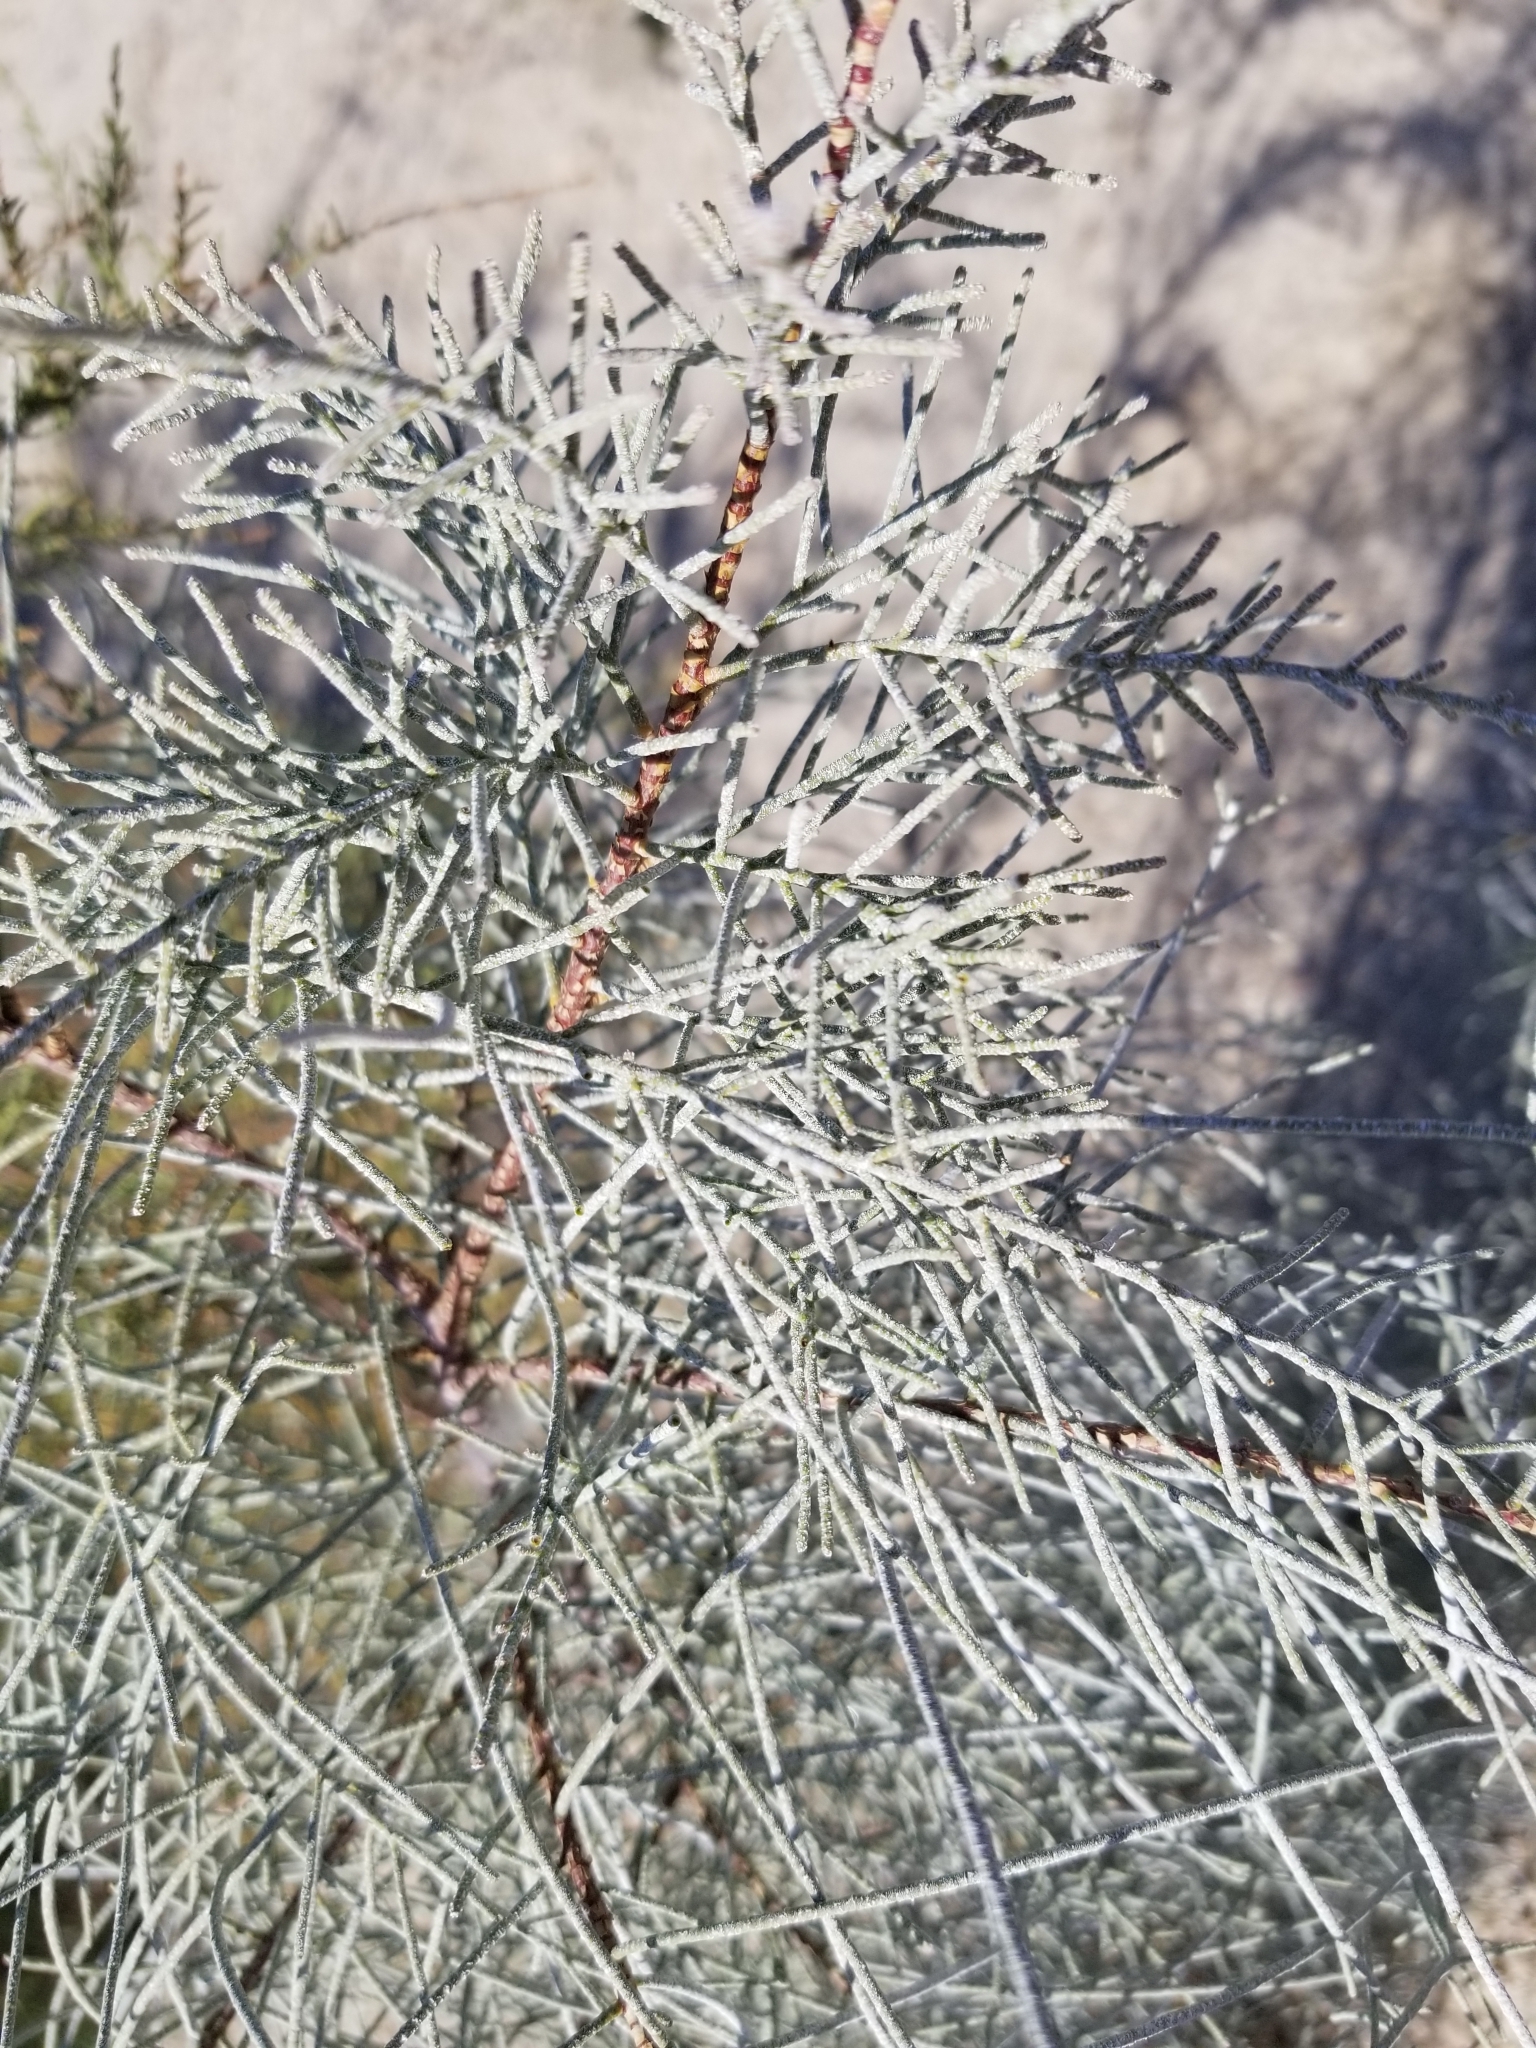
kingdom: Plantae
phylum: Tracheophyta
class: Magnoliopsida
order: Caryophyllales
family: Tamaricaceae
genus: Tamarix
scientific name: Tamarix aphylla
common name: Athel tamarisk
